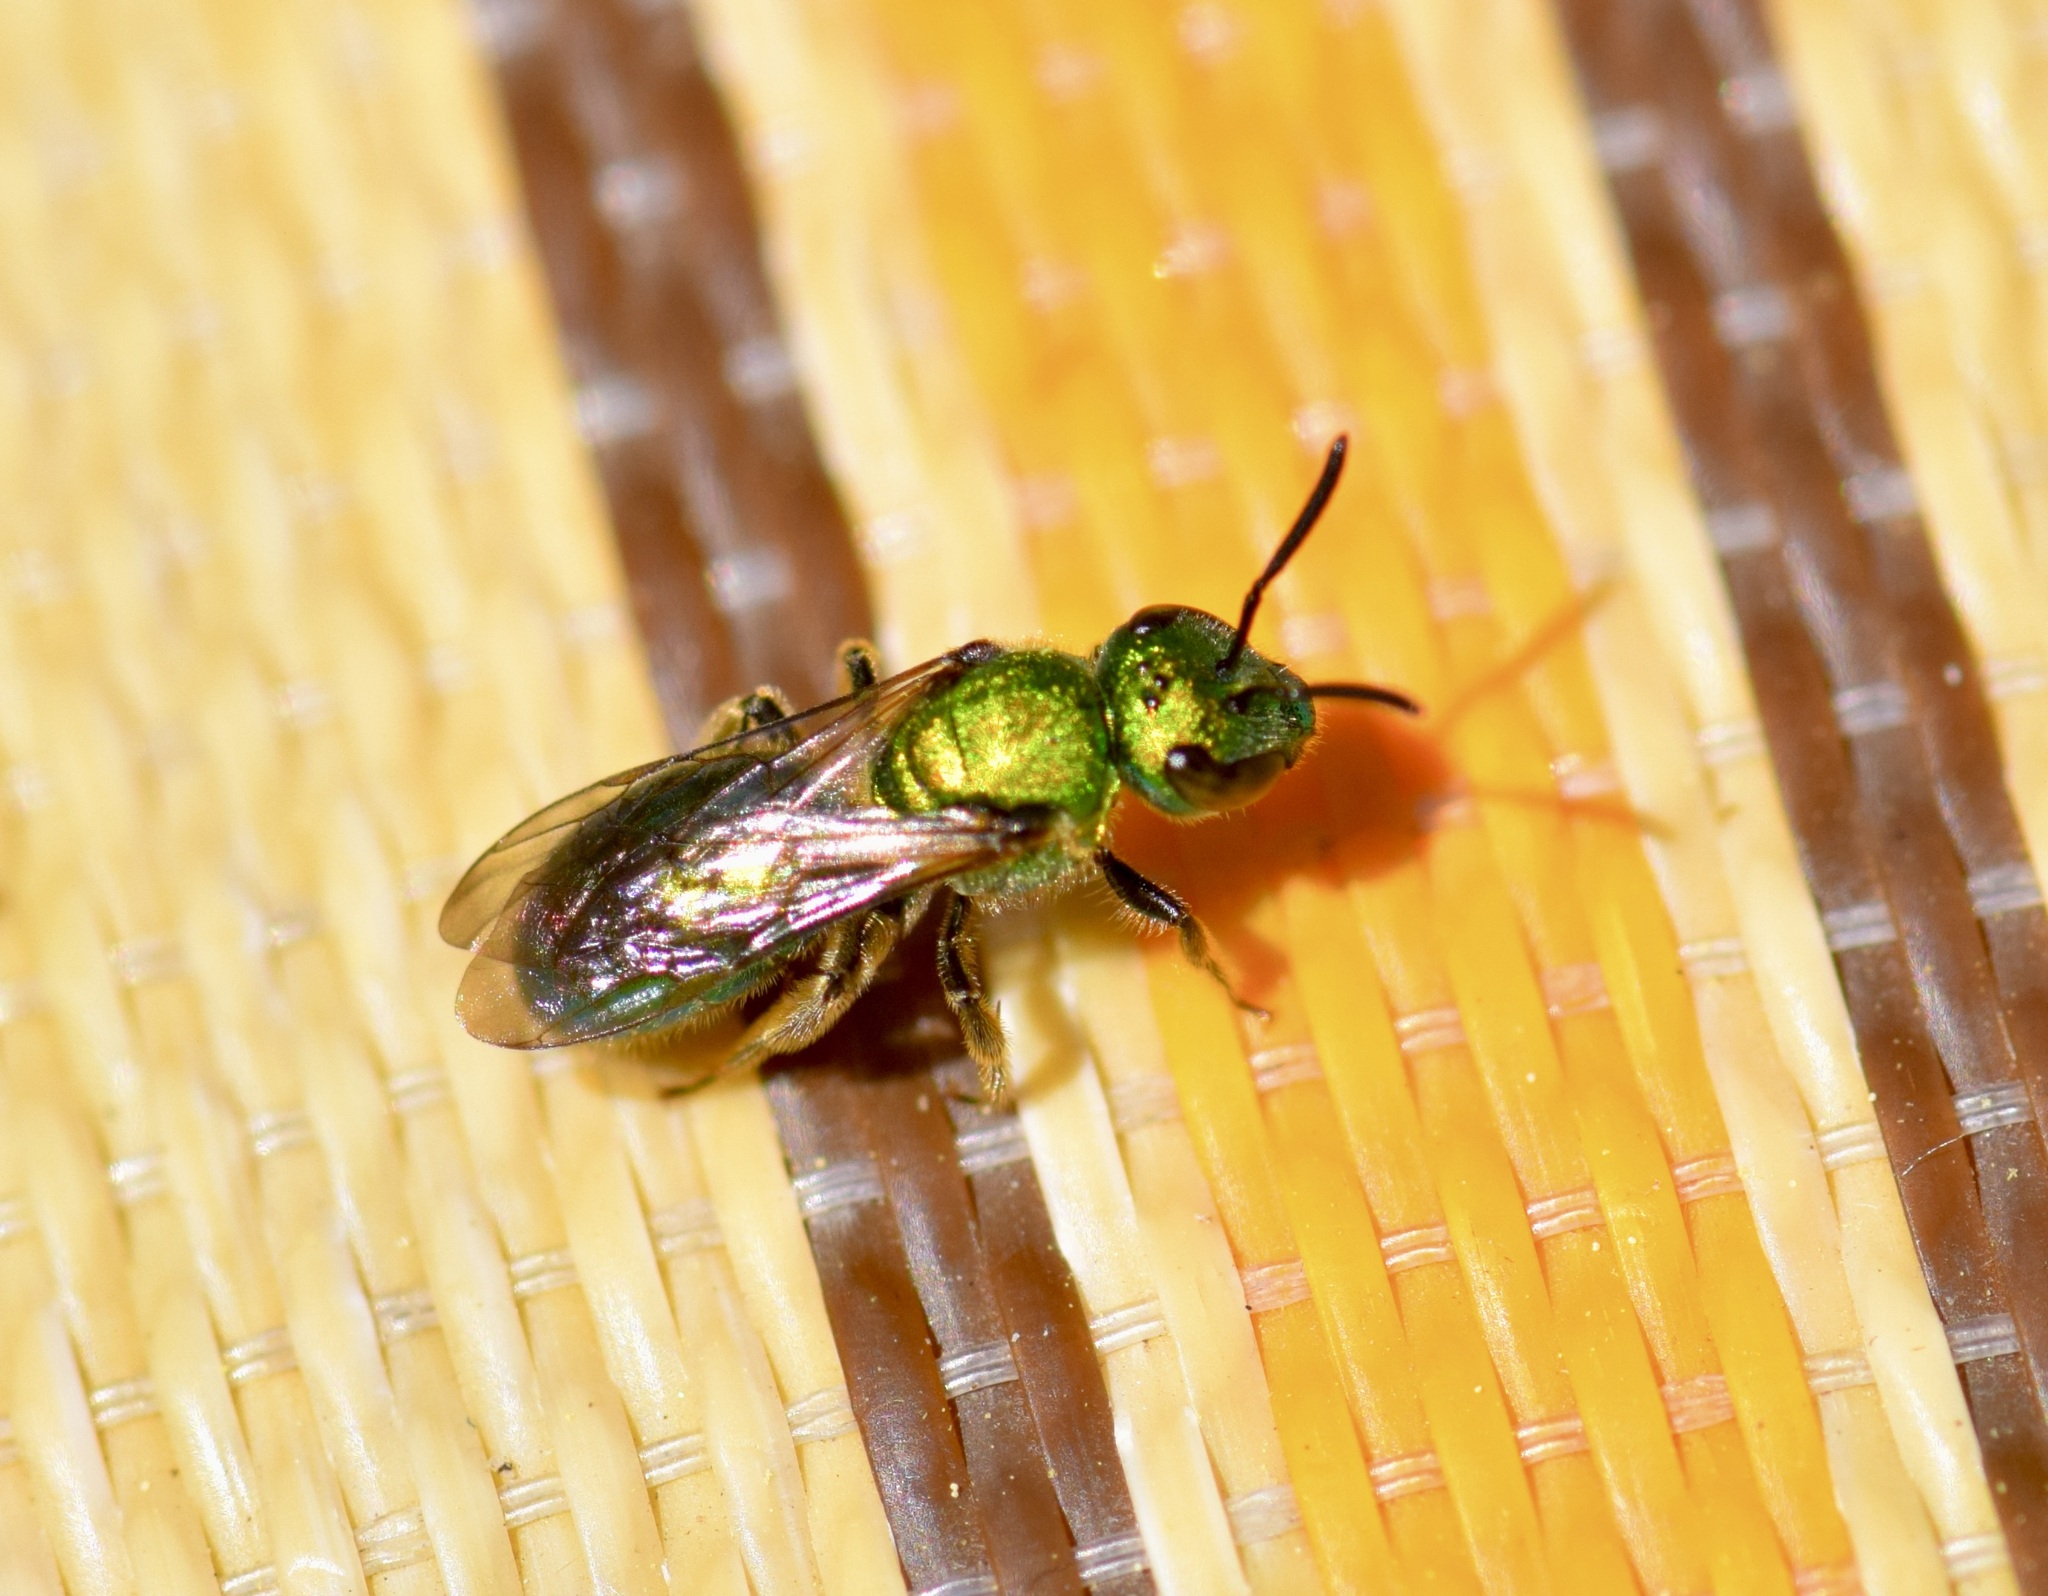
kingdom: Animalia
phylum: Arthropoda
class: Insecta
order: Hymenoptera
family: Halictidae
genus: Augochlora
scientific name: Augochlora pura
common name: Pure green sweat bee
